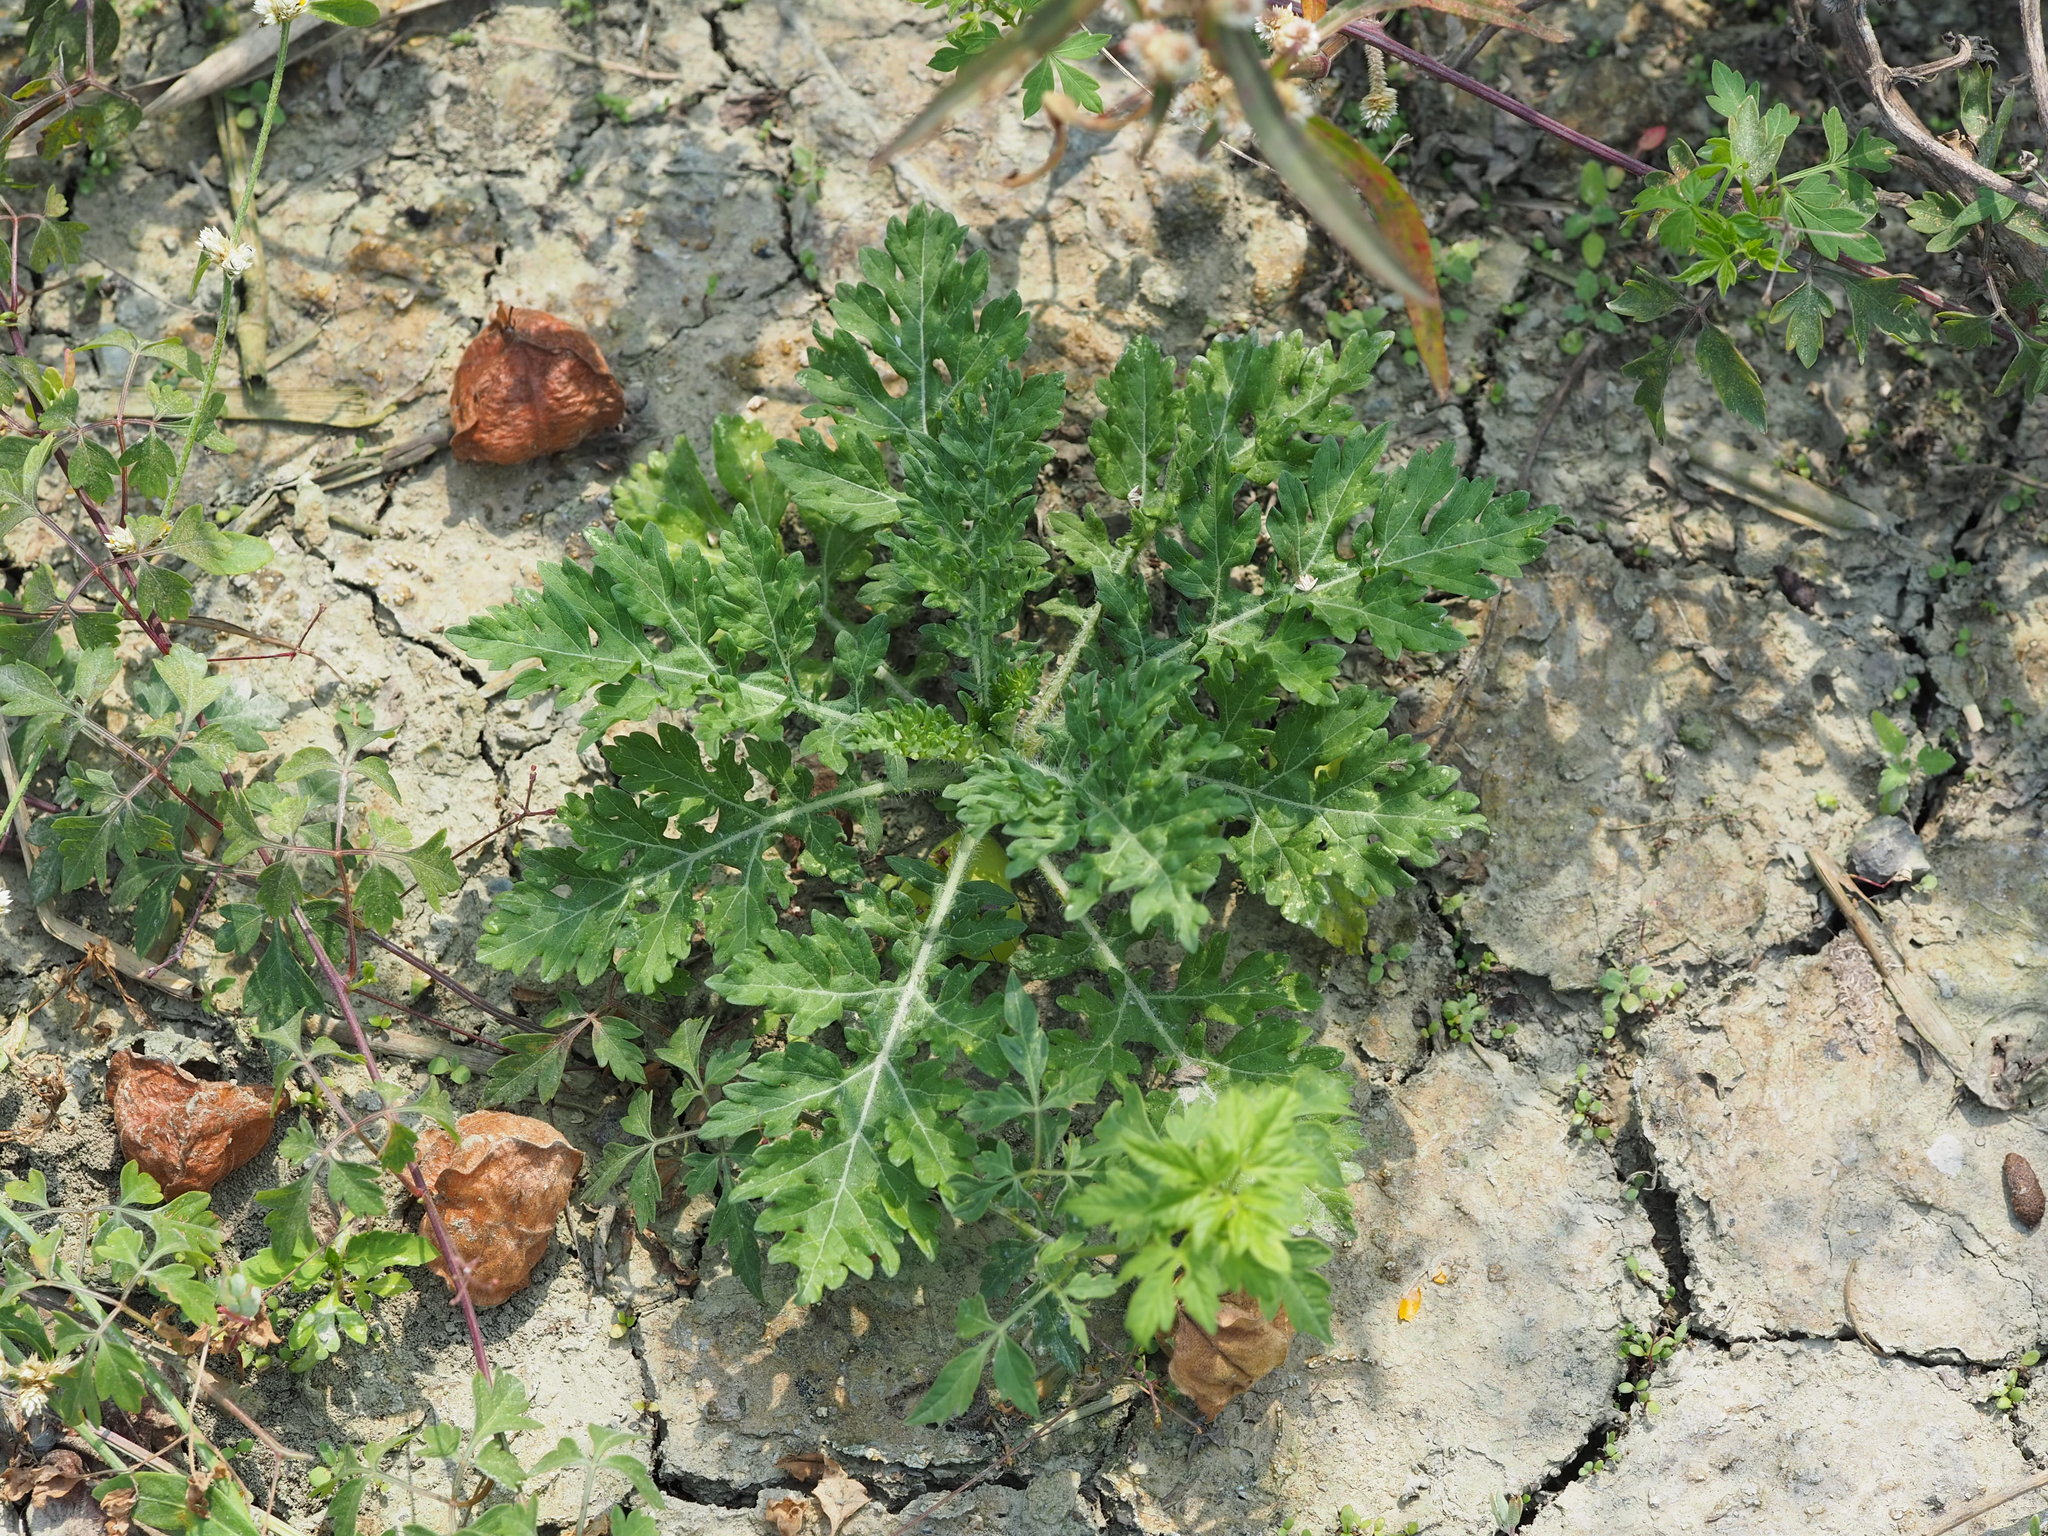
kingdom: Plantae
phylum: Tracheophyta
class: Magnoliopsida
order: Asterales
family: Asteraceae
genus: Parthenium
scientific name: Parthenium hysterophorus
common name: Santa maria feverfew
